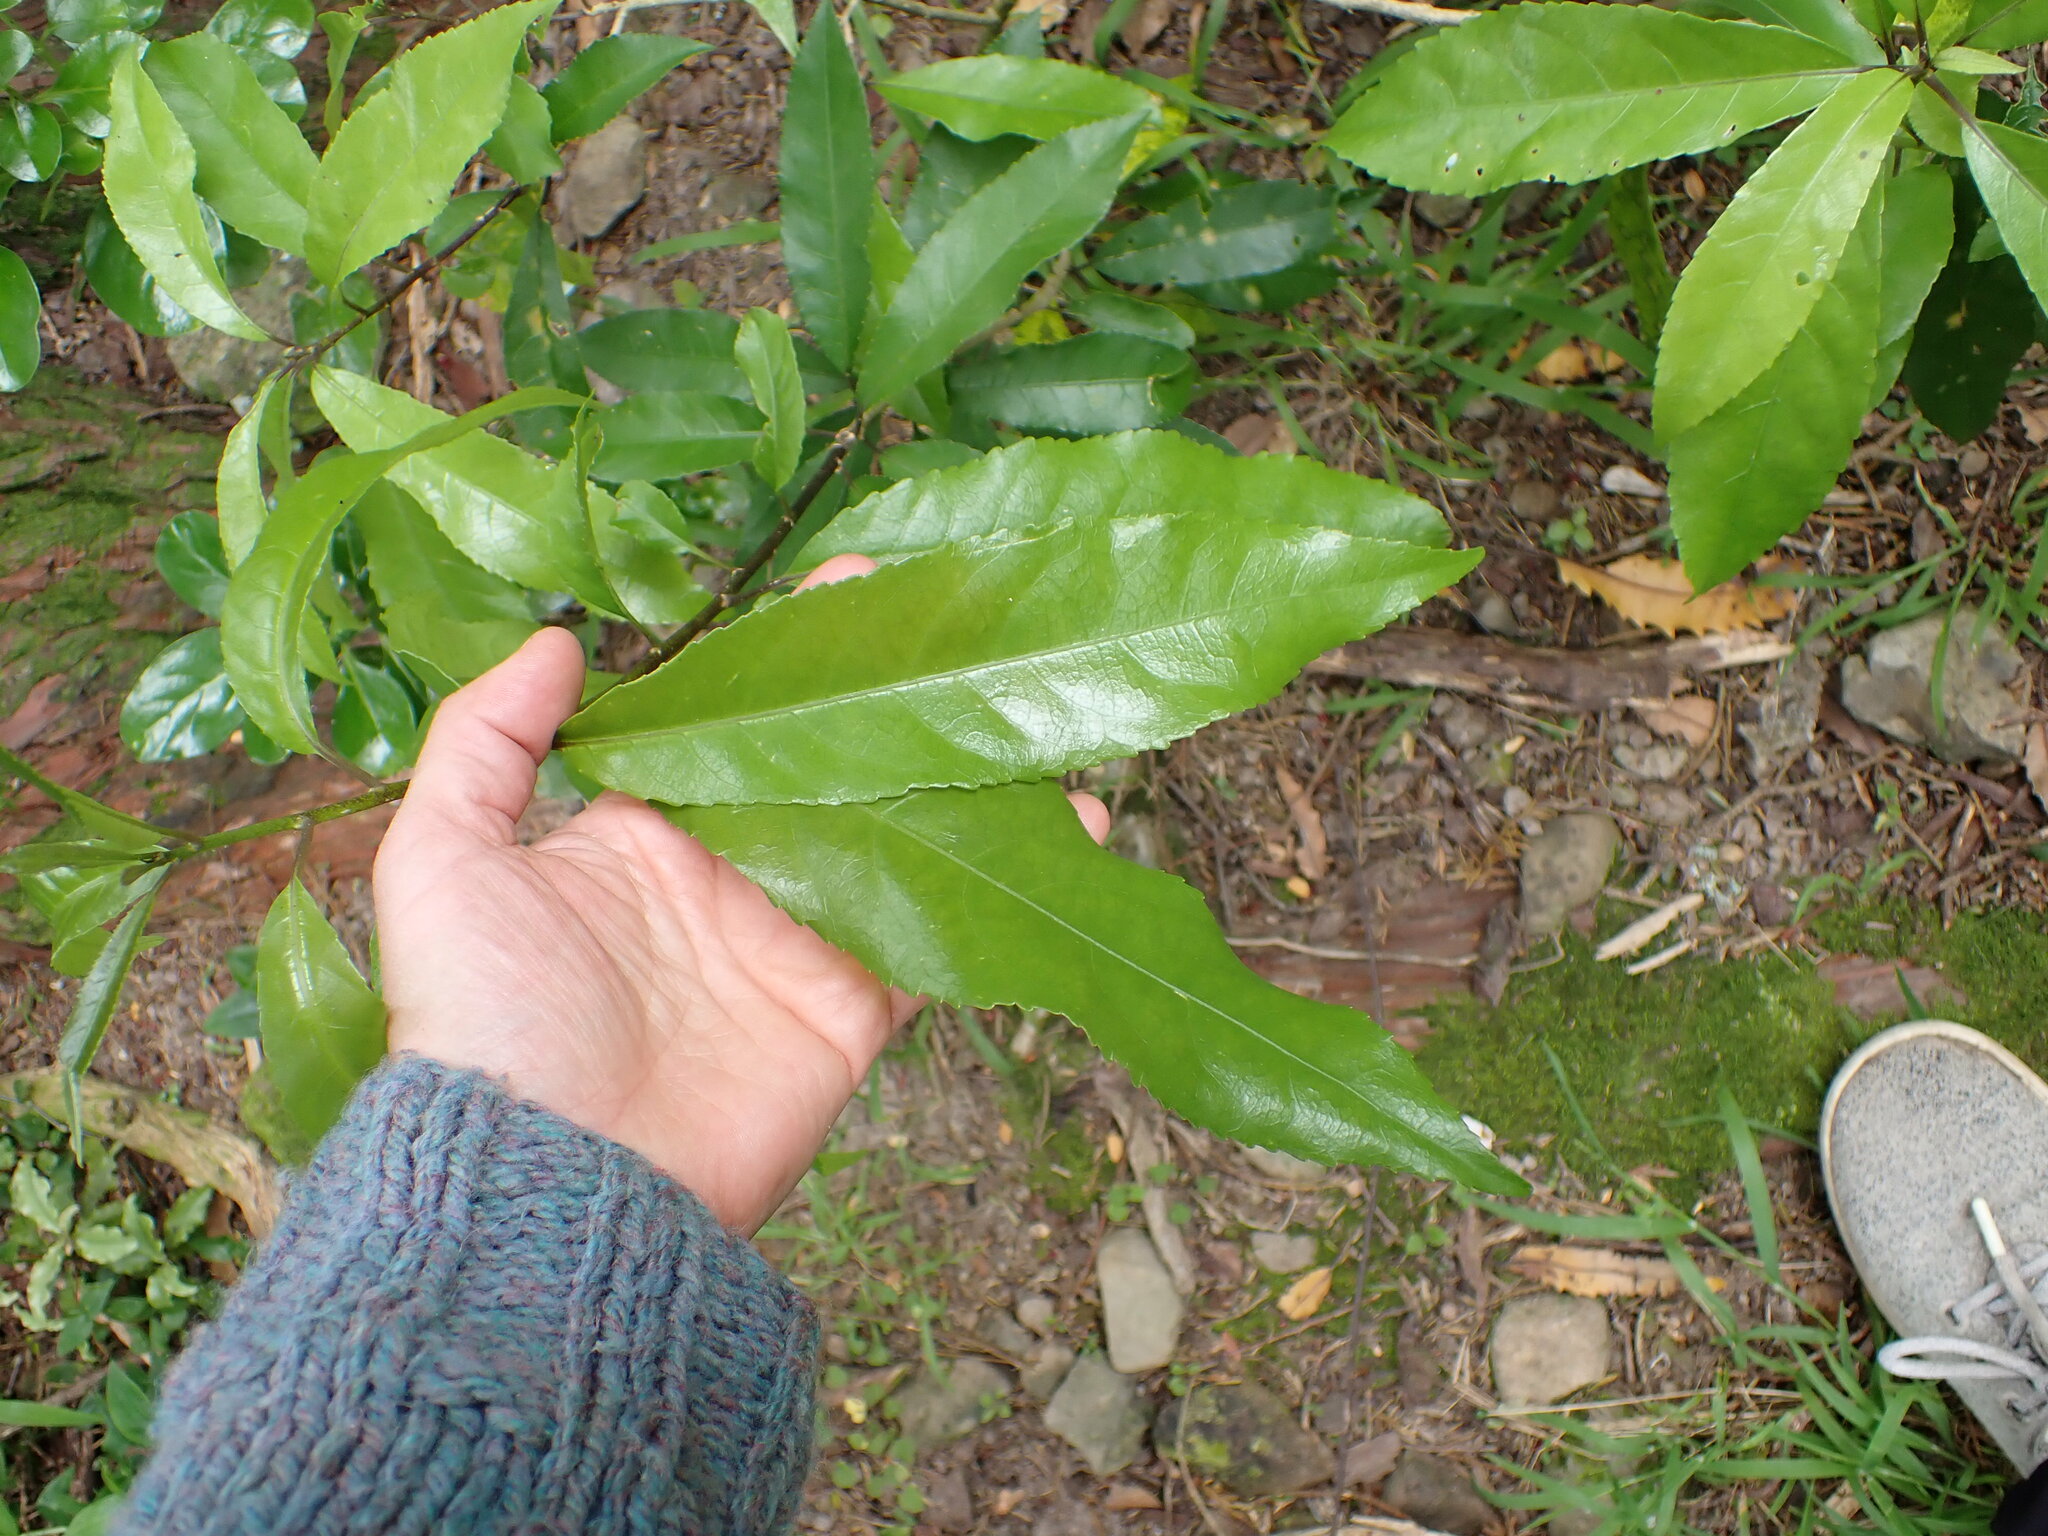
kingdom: Plantae
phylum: Tracheophyta
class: Magnoliopsida
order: Malpighiales
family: Violaceae
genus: Melicytus
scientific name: Melicytus ramiflorus
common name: Mahoe
